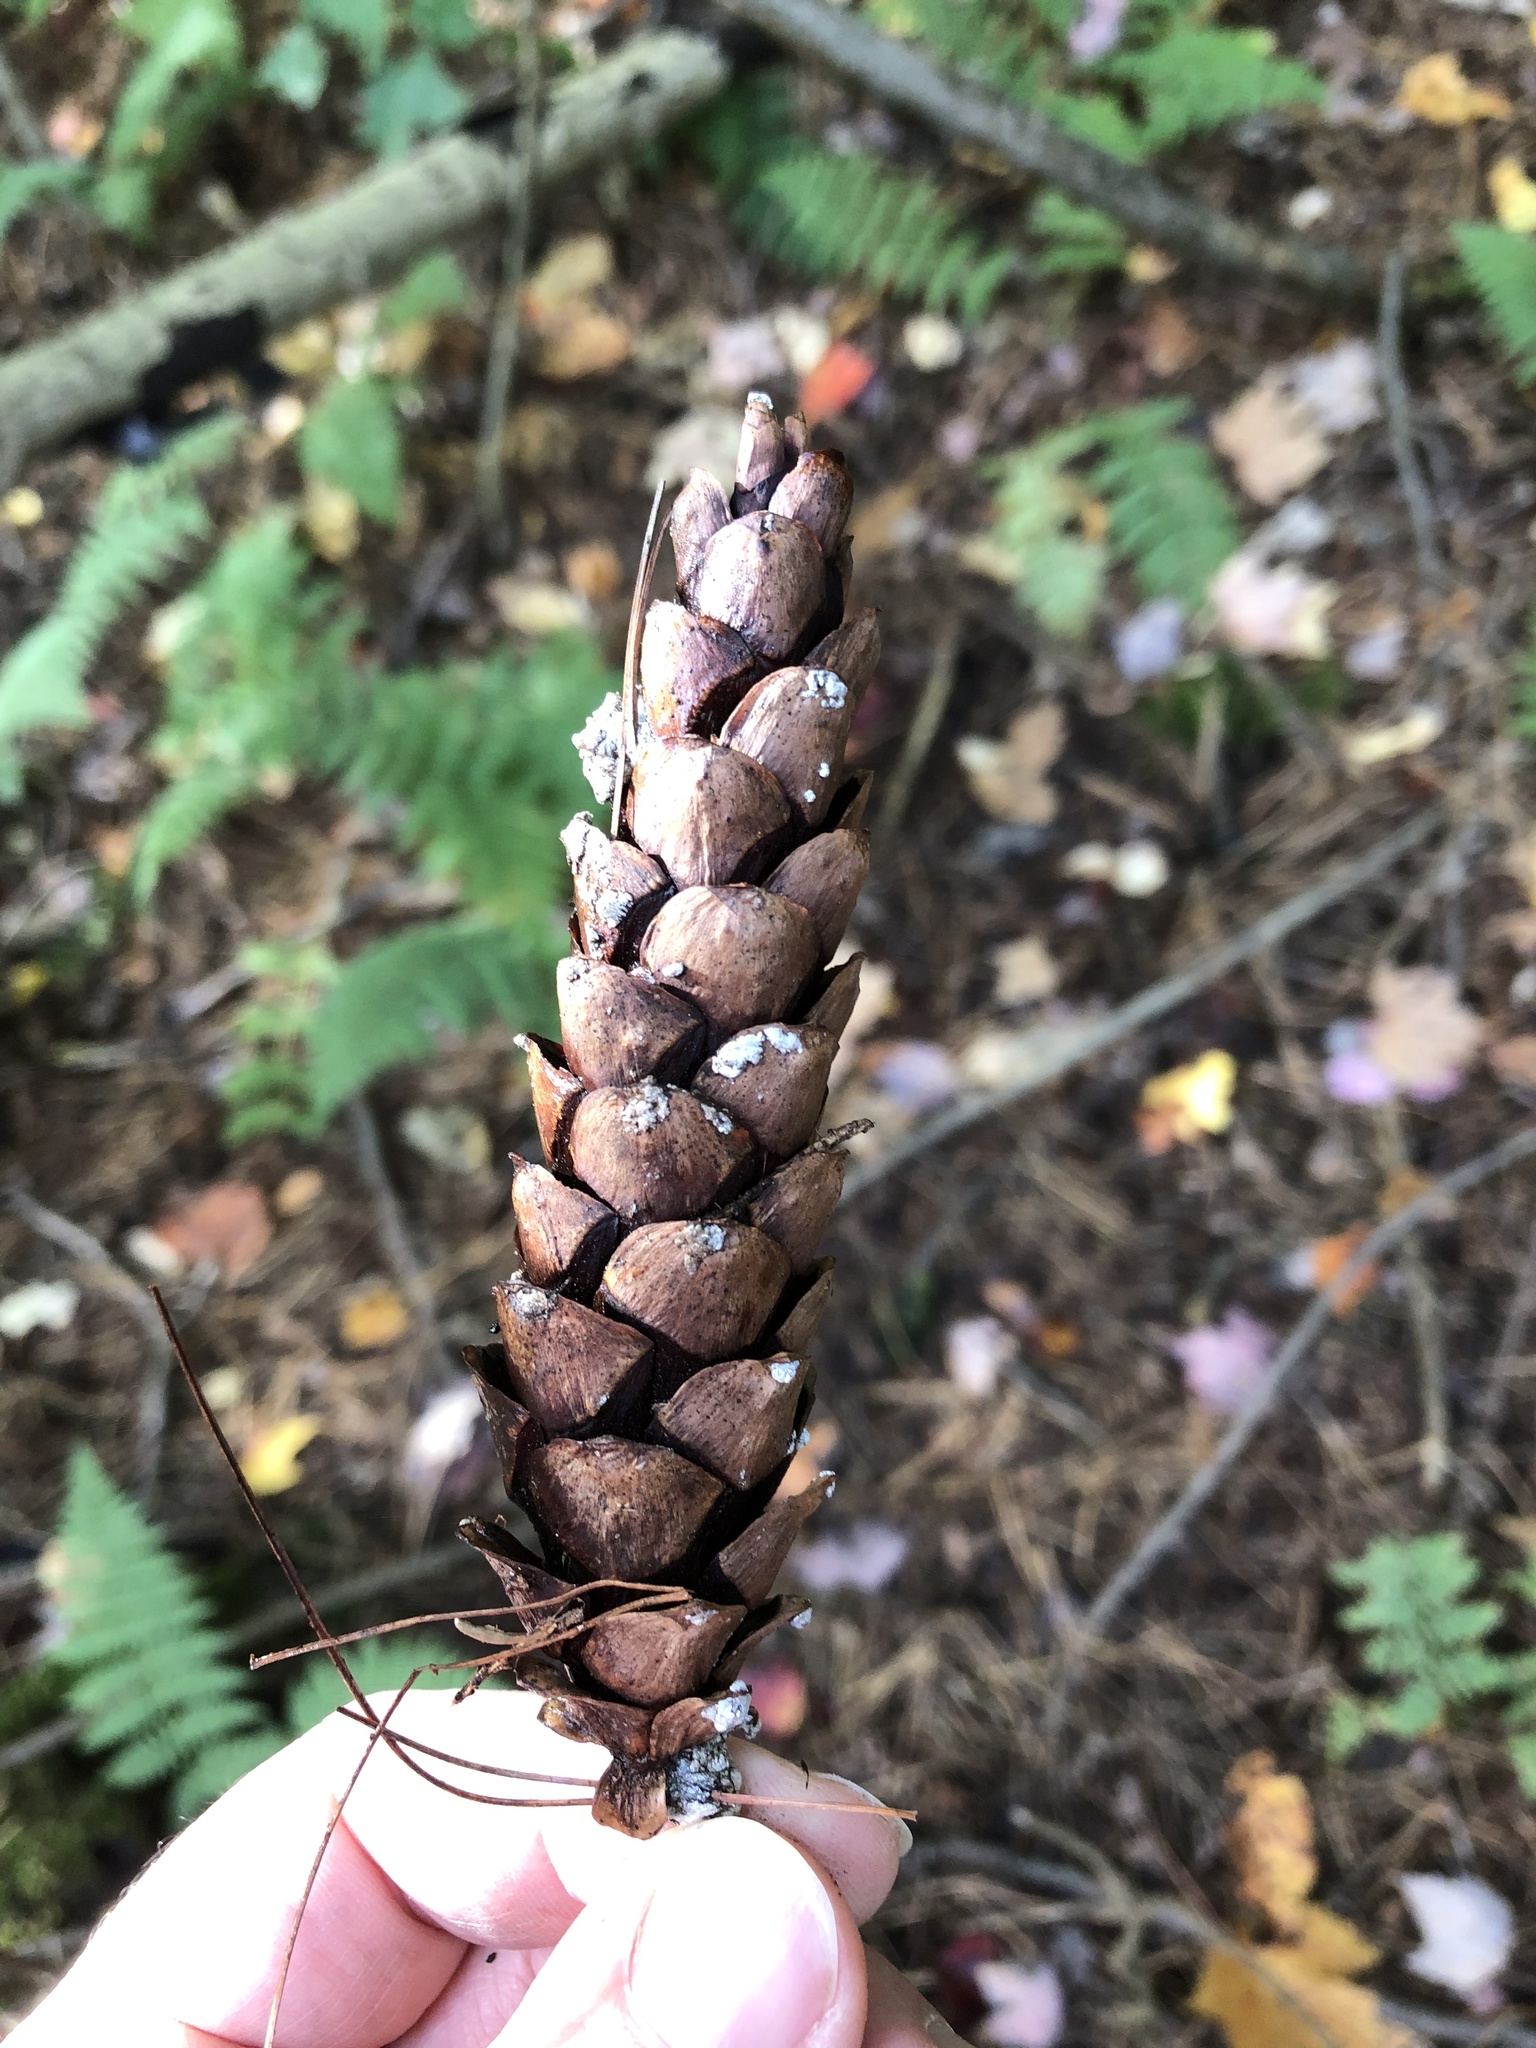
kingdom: Plantae
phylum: Tracheophyta
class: Pinopsida
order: Pinales
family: Pinaceae
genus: Pinus
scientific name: Pinus strobus
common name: Weymouth pine
